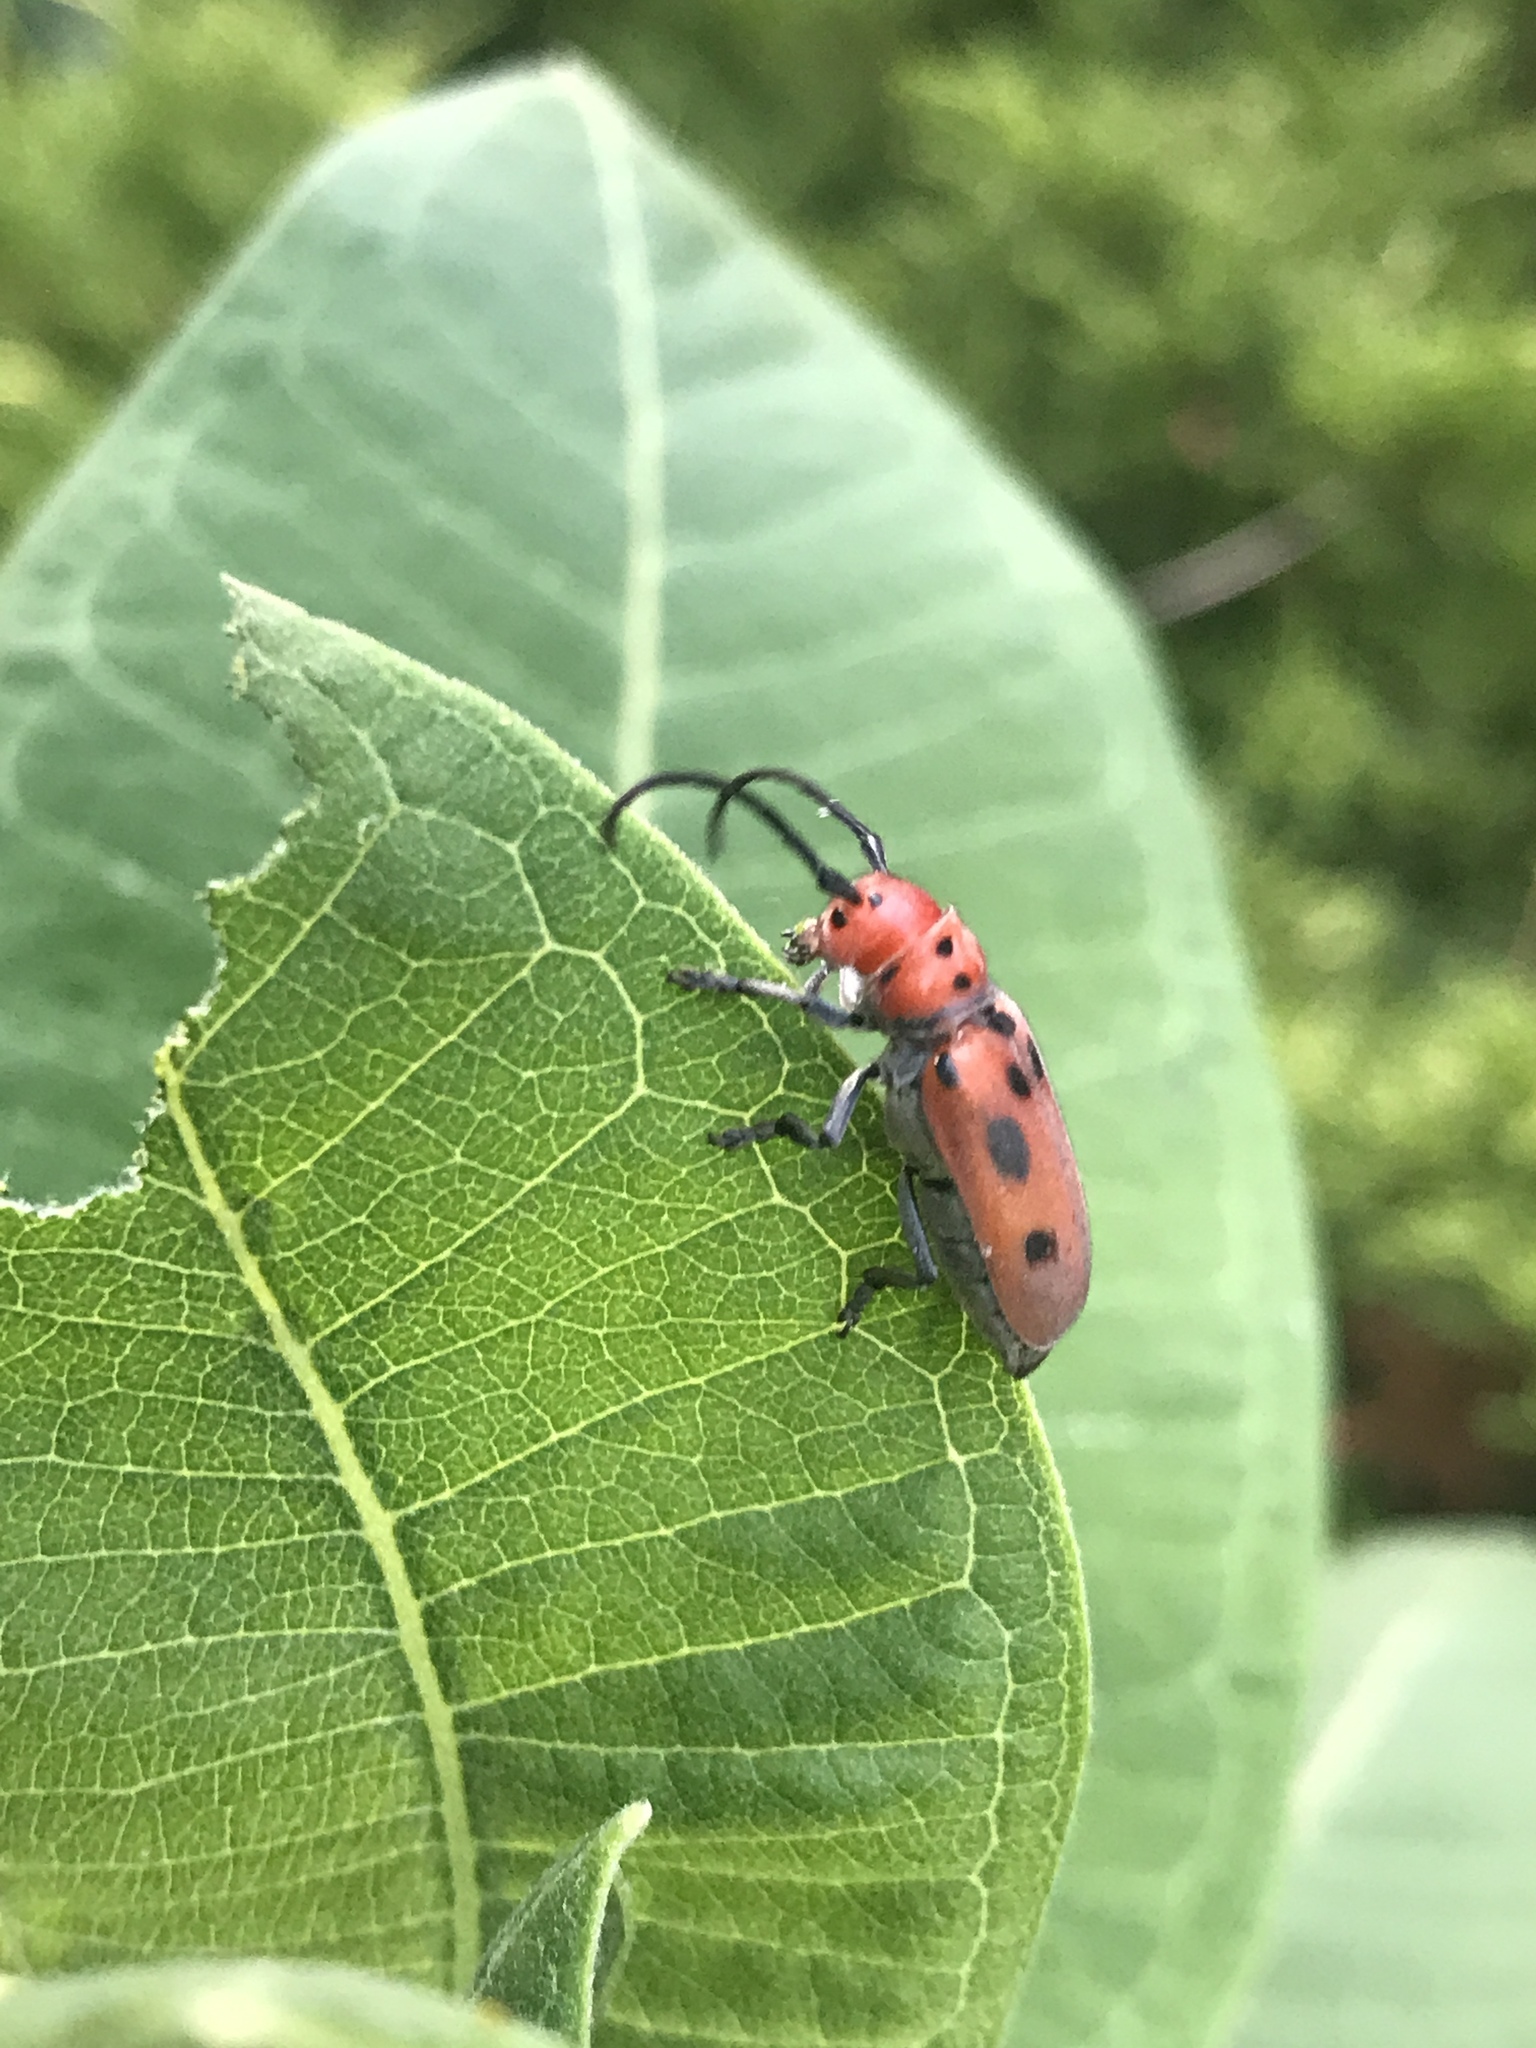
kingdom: Animalia
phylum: Arthropoda
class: Insecta
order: Coleoptera
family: Cerambycidae
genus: Tetraopes
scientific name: Tetraopes tetrophthalmus
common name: Red milkweed beetle
